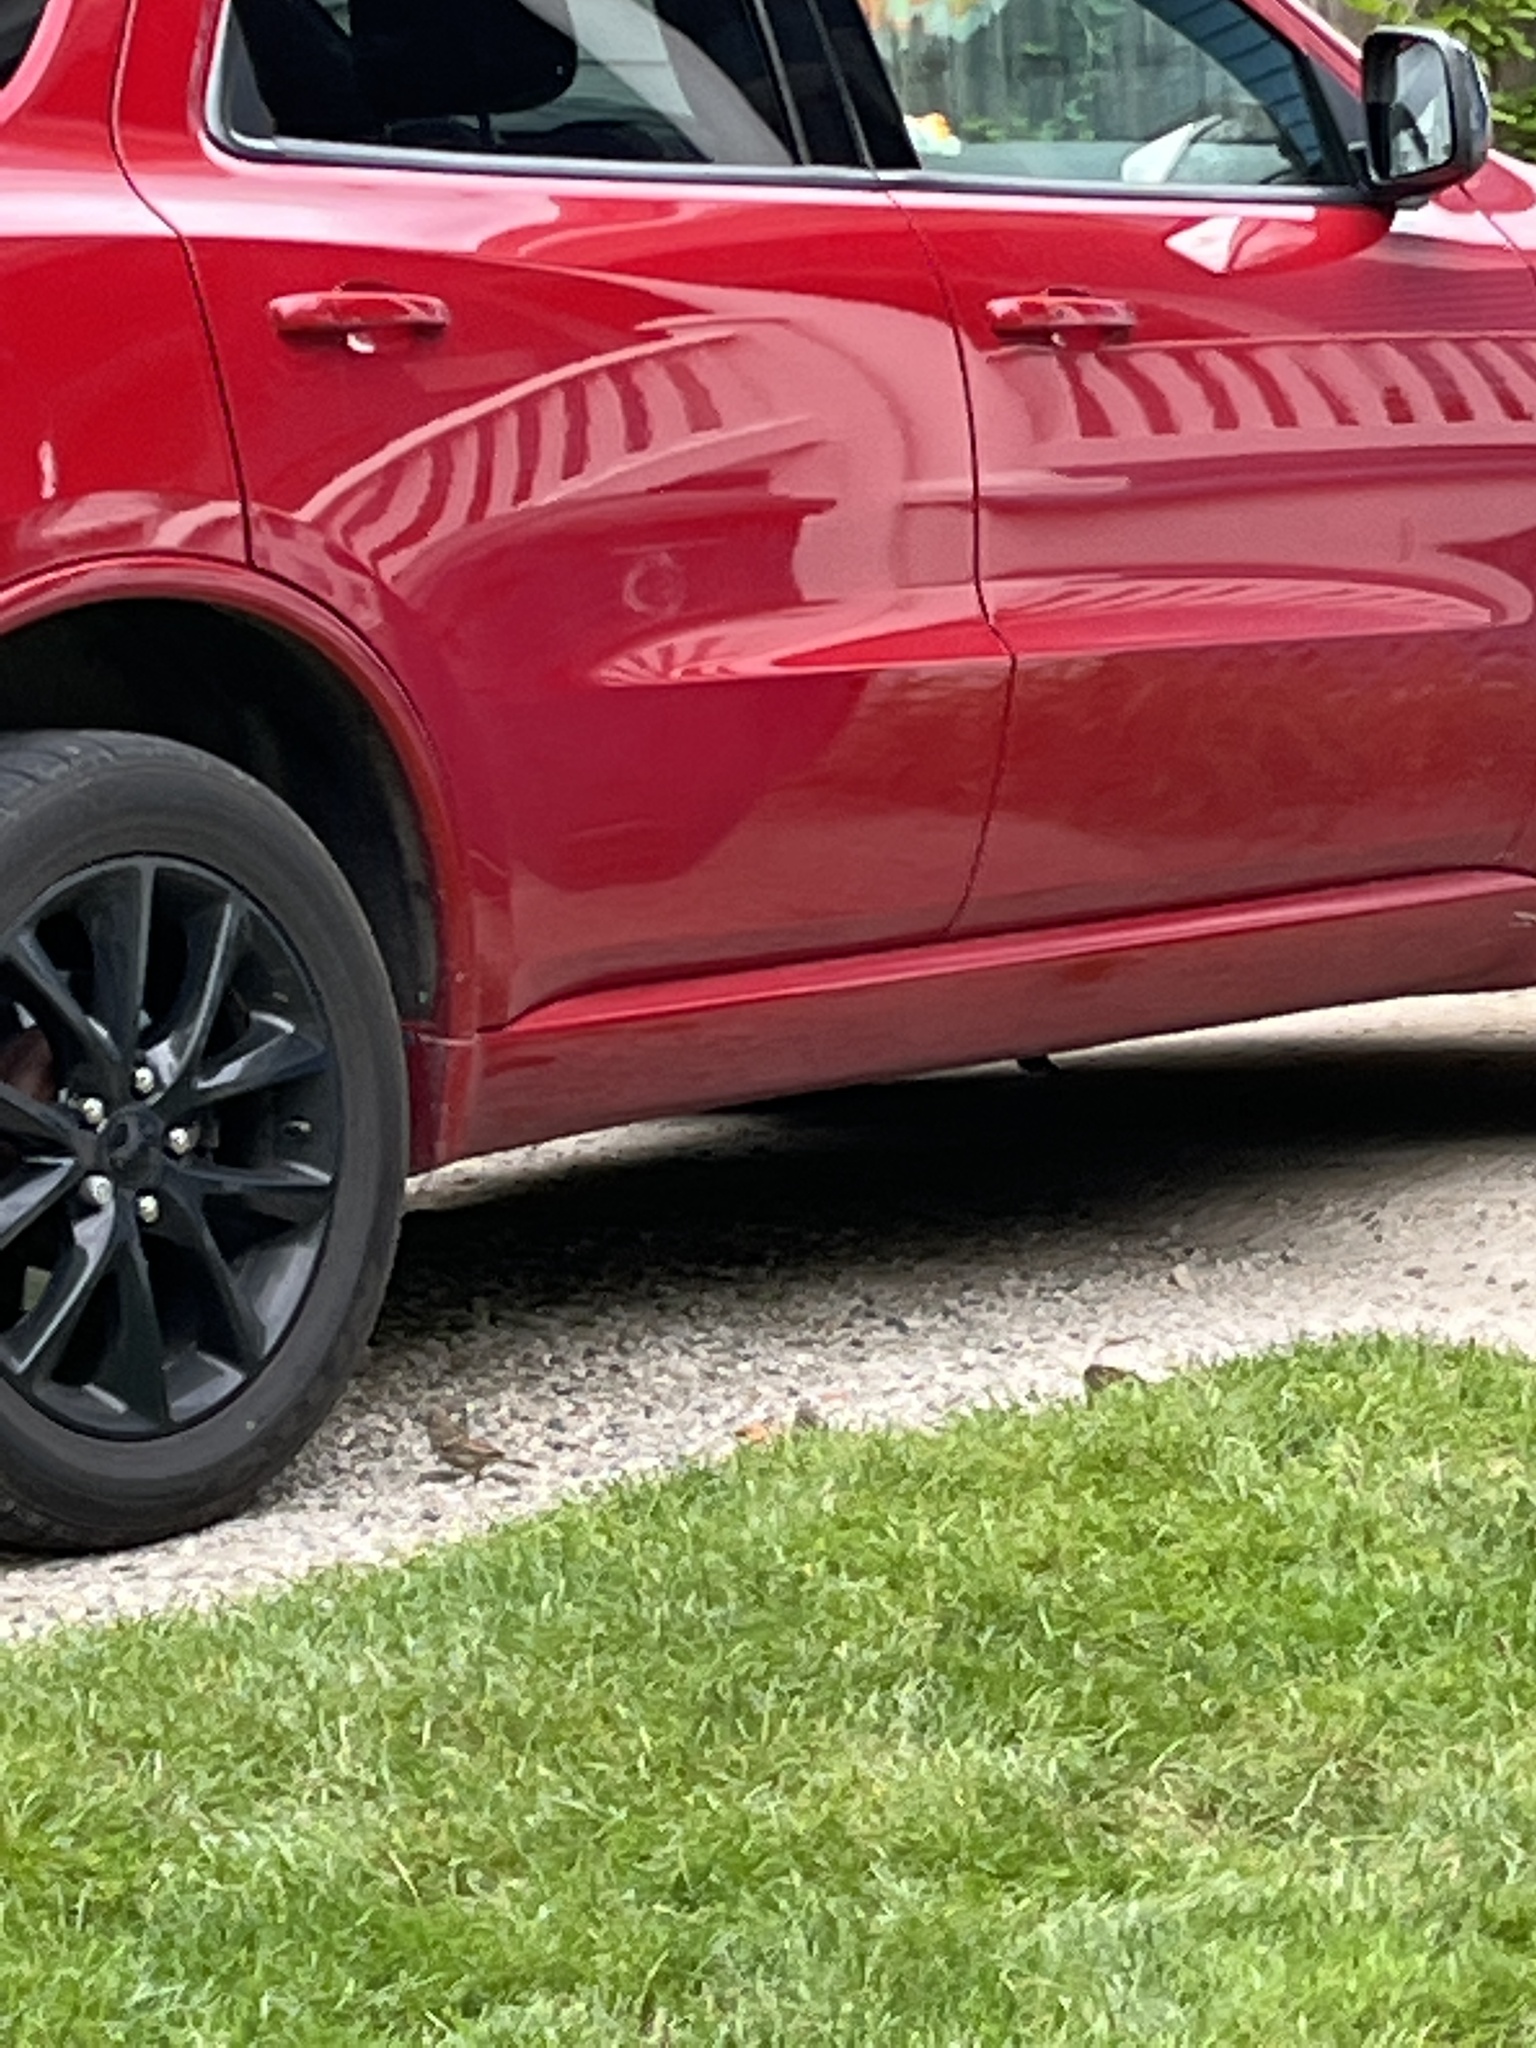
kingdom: Animalia
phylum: Chordata
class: Aves
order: Passeriformes
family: Passeridae
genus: Passer
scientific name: Passer domesticus
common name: House sparrow
